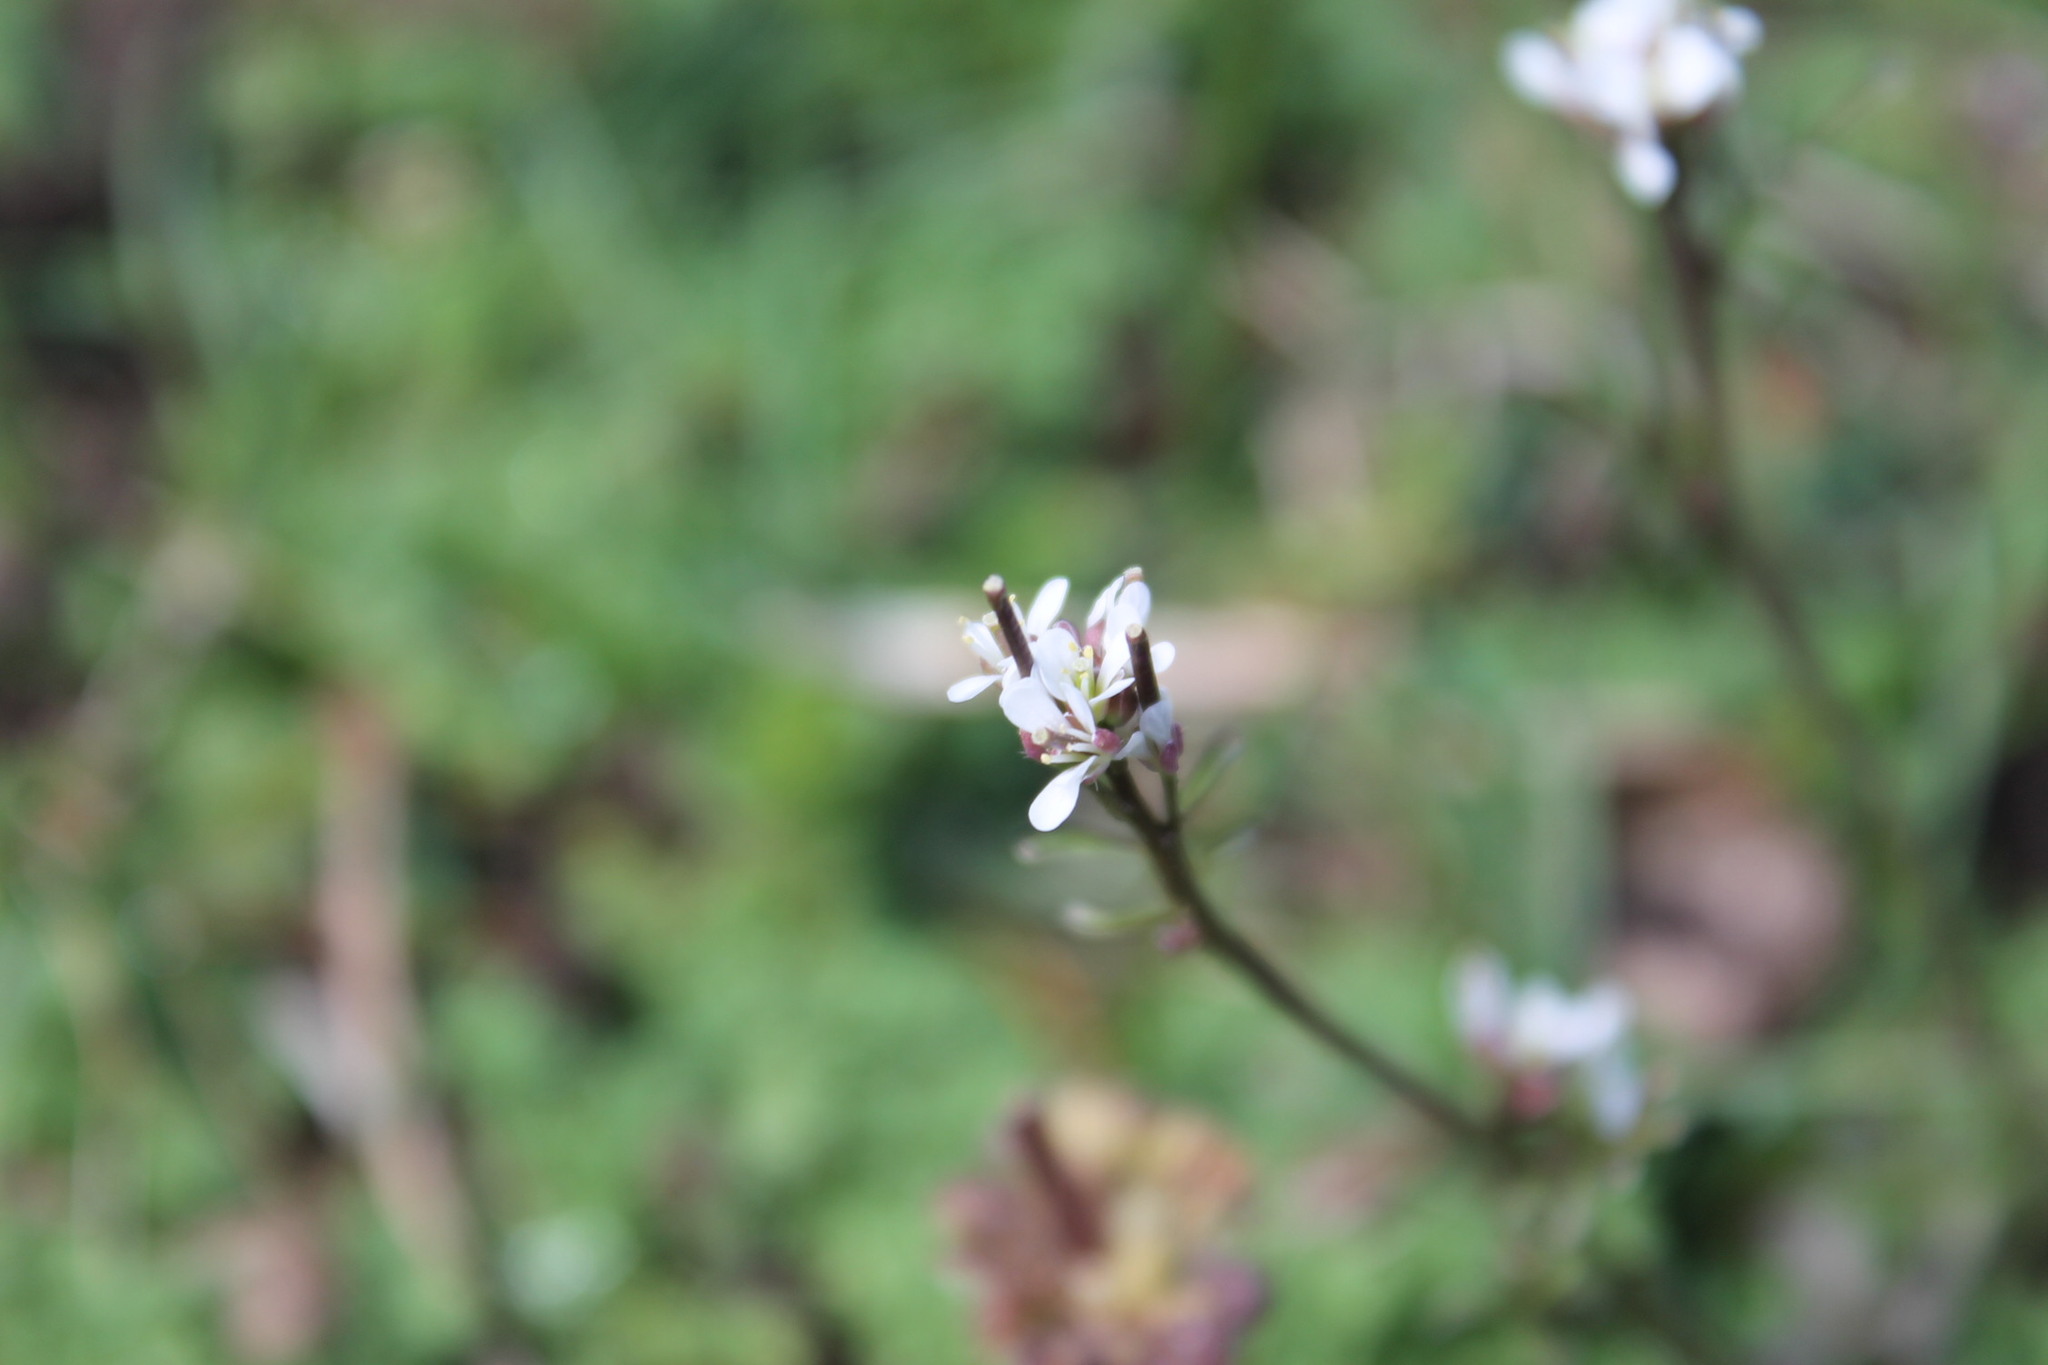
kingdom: Plantae
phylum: Tracheophyta
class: Magnoliopsida
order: Brassicales
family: Brassicaceae
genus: Cardamine
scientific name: Cardamine hirsuta
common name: Hairy bittercress
